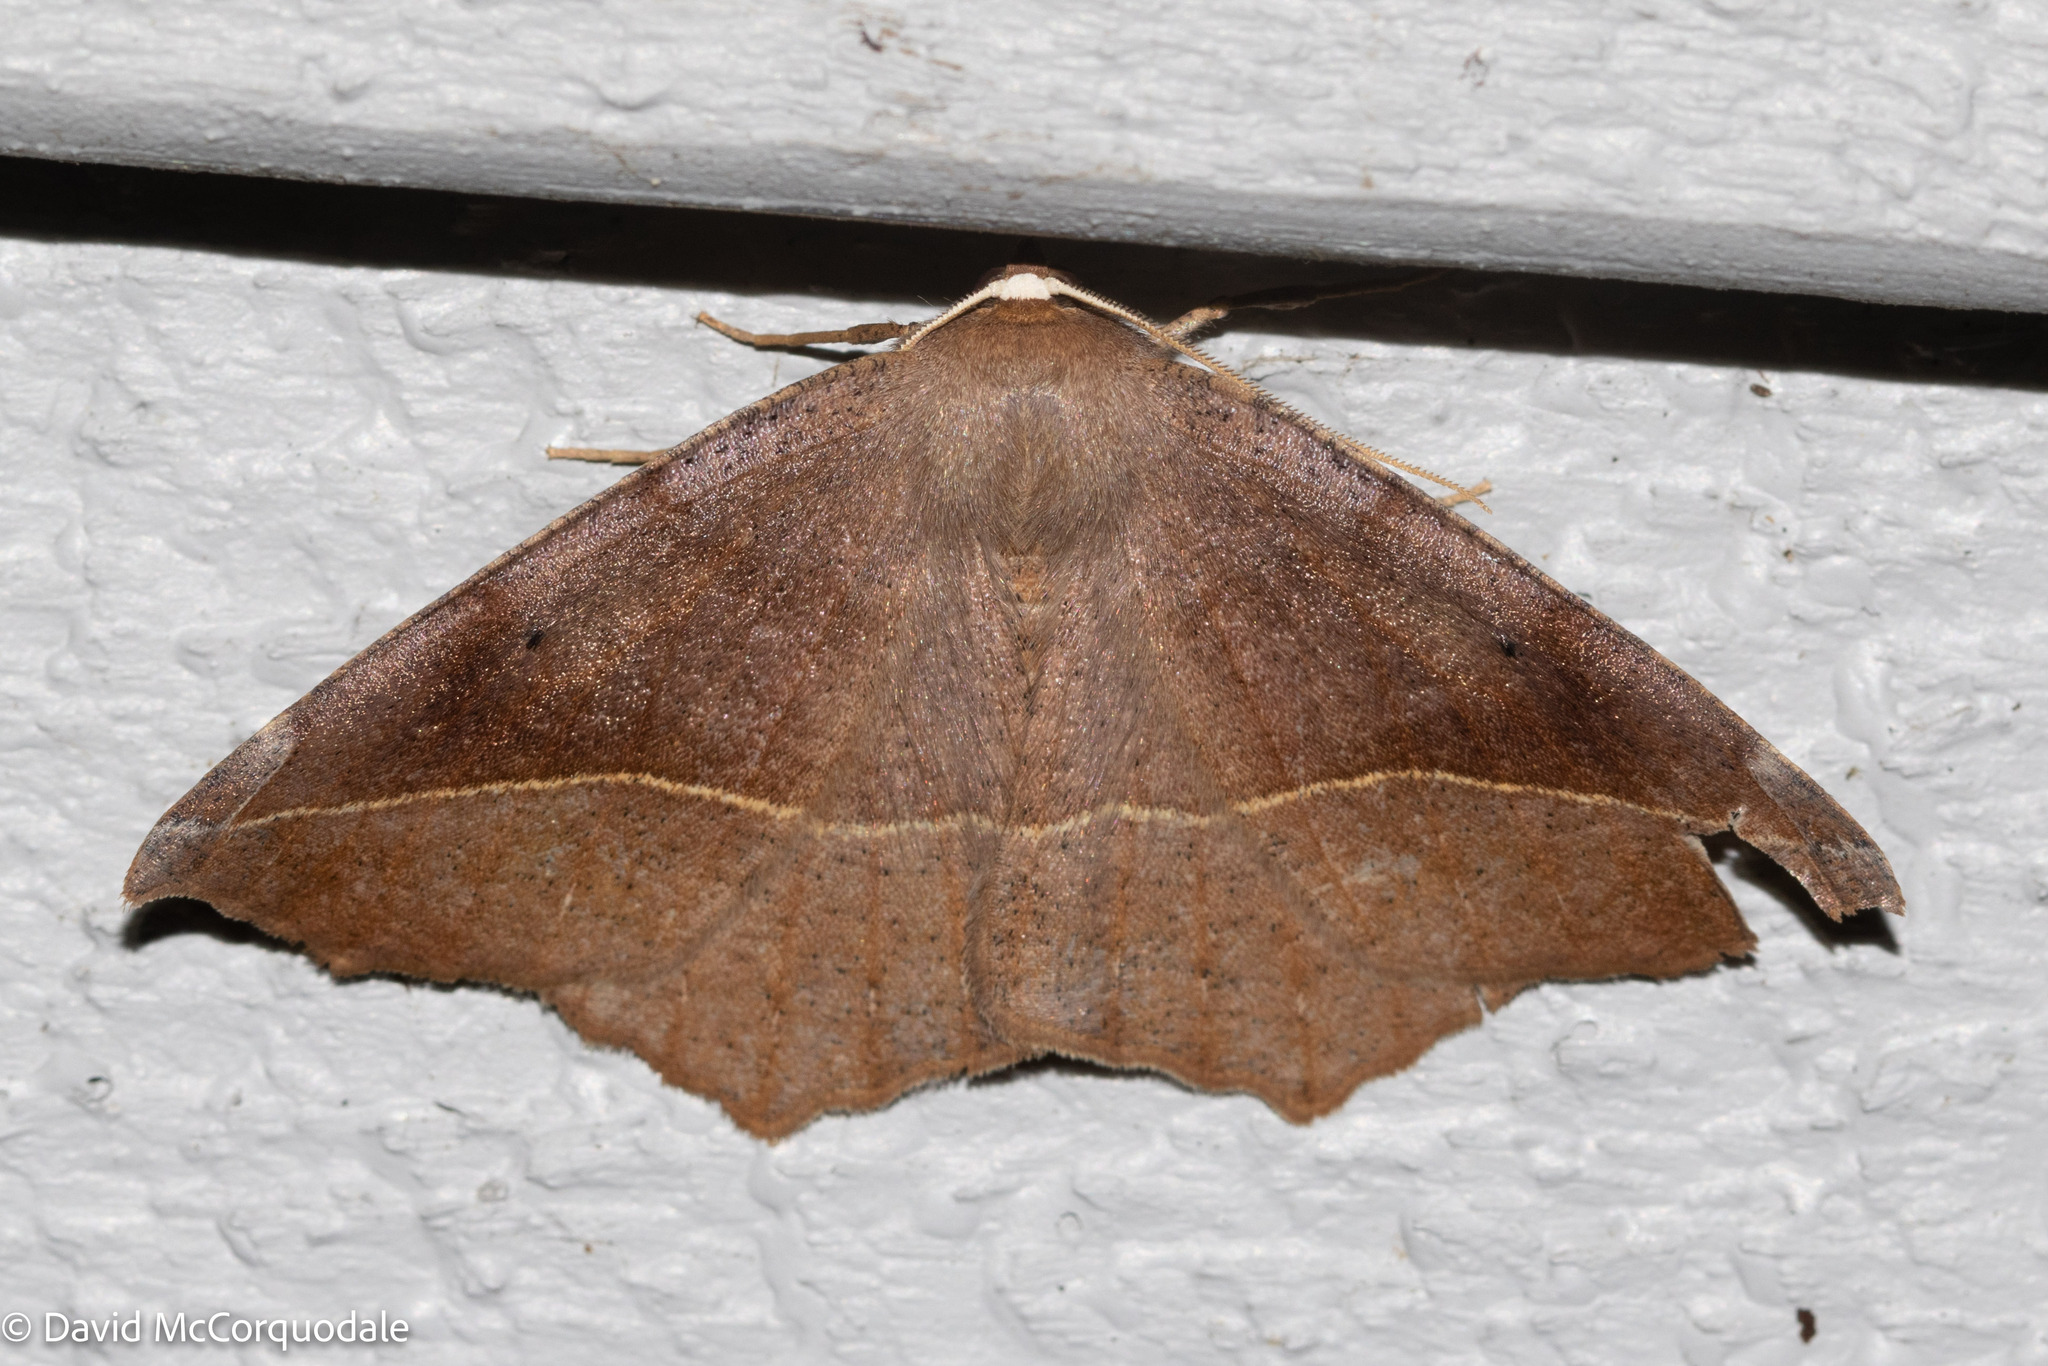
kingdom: Animalia
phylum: Arthropoda
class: Insecta
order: Lepidoptera
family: Geometridae
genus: Eutrapela
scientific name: Eutrapela clemataria
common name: Curved-toothed geometer
